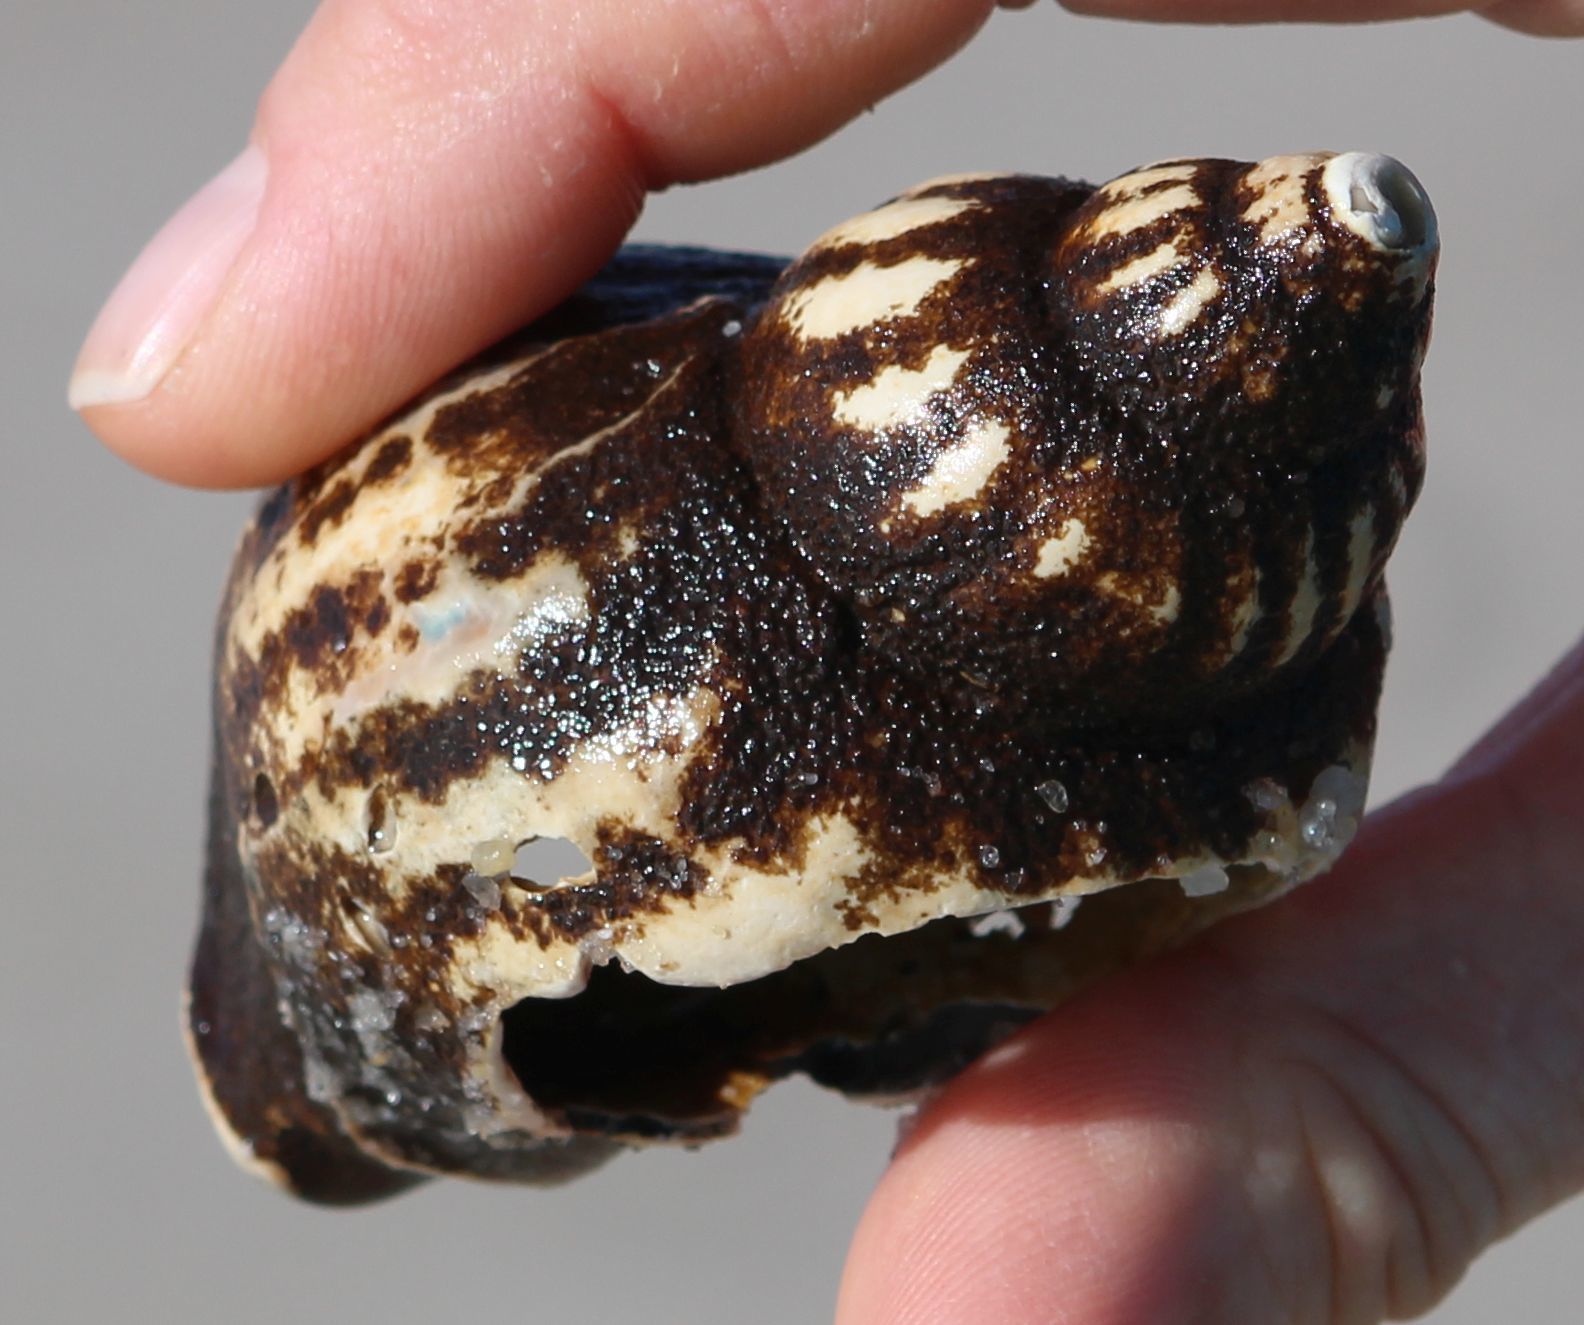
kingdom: Animalia
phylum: Mollusca
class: Gastropoda
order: Neogastropoda
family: Buccinidae
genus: Buccinum
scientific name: Buccinum undatum
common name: Common whelk
